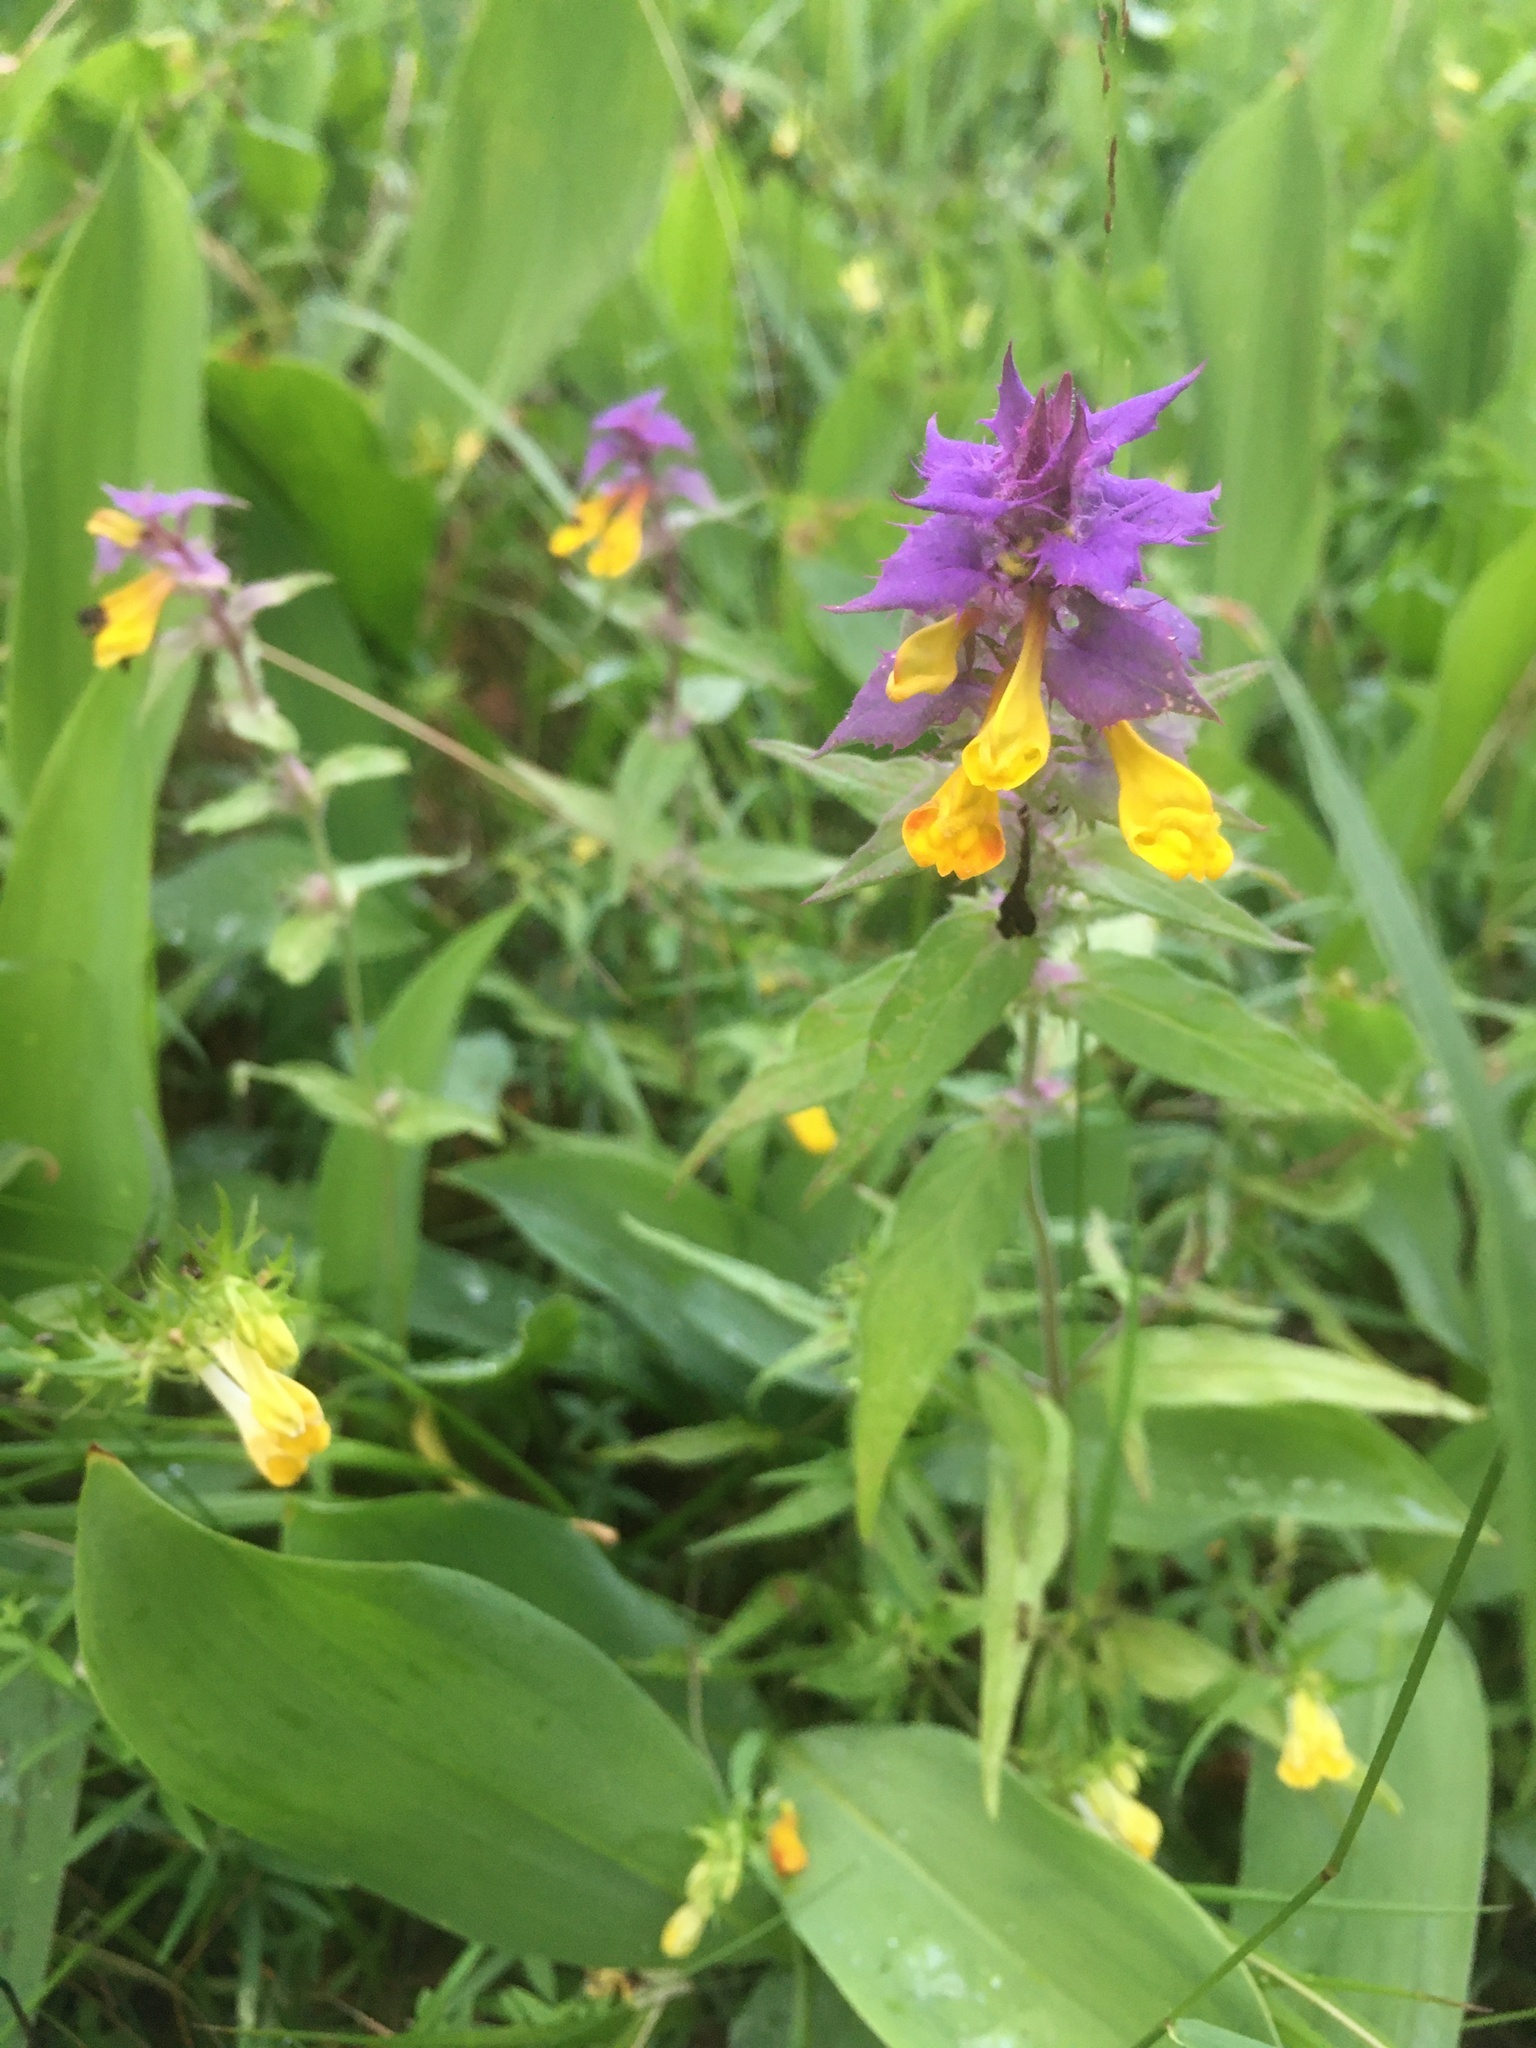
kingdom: Plantae
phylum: Tracheophyta
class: Magnoliopsida
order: Lamiales
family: Orobanchaceae
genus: Melampyrum
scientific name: Melampyrum nemorosum
